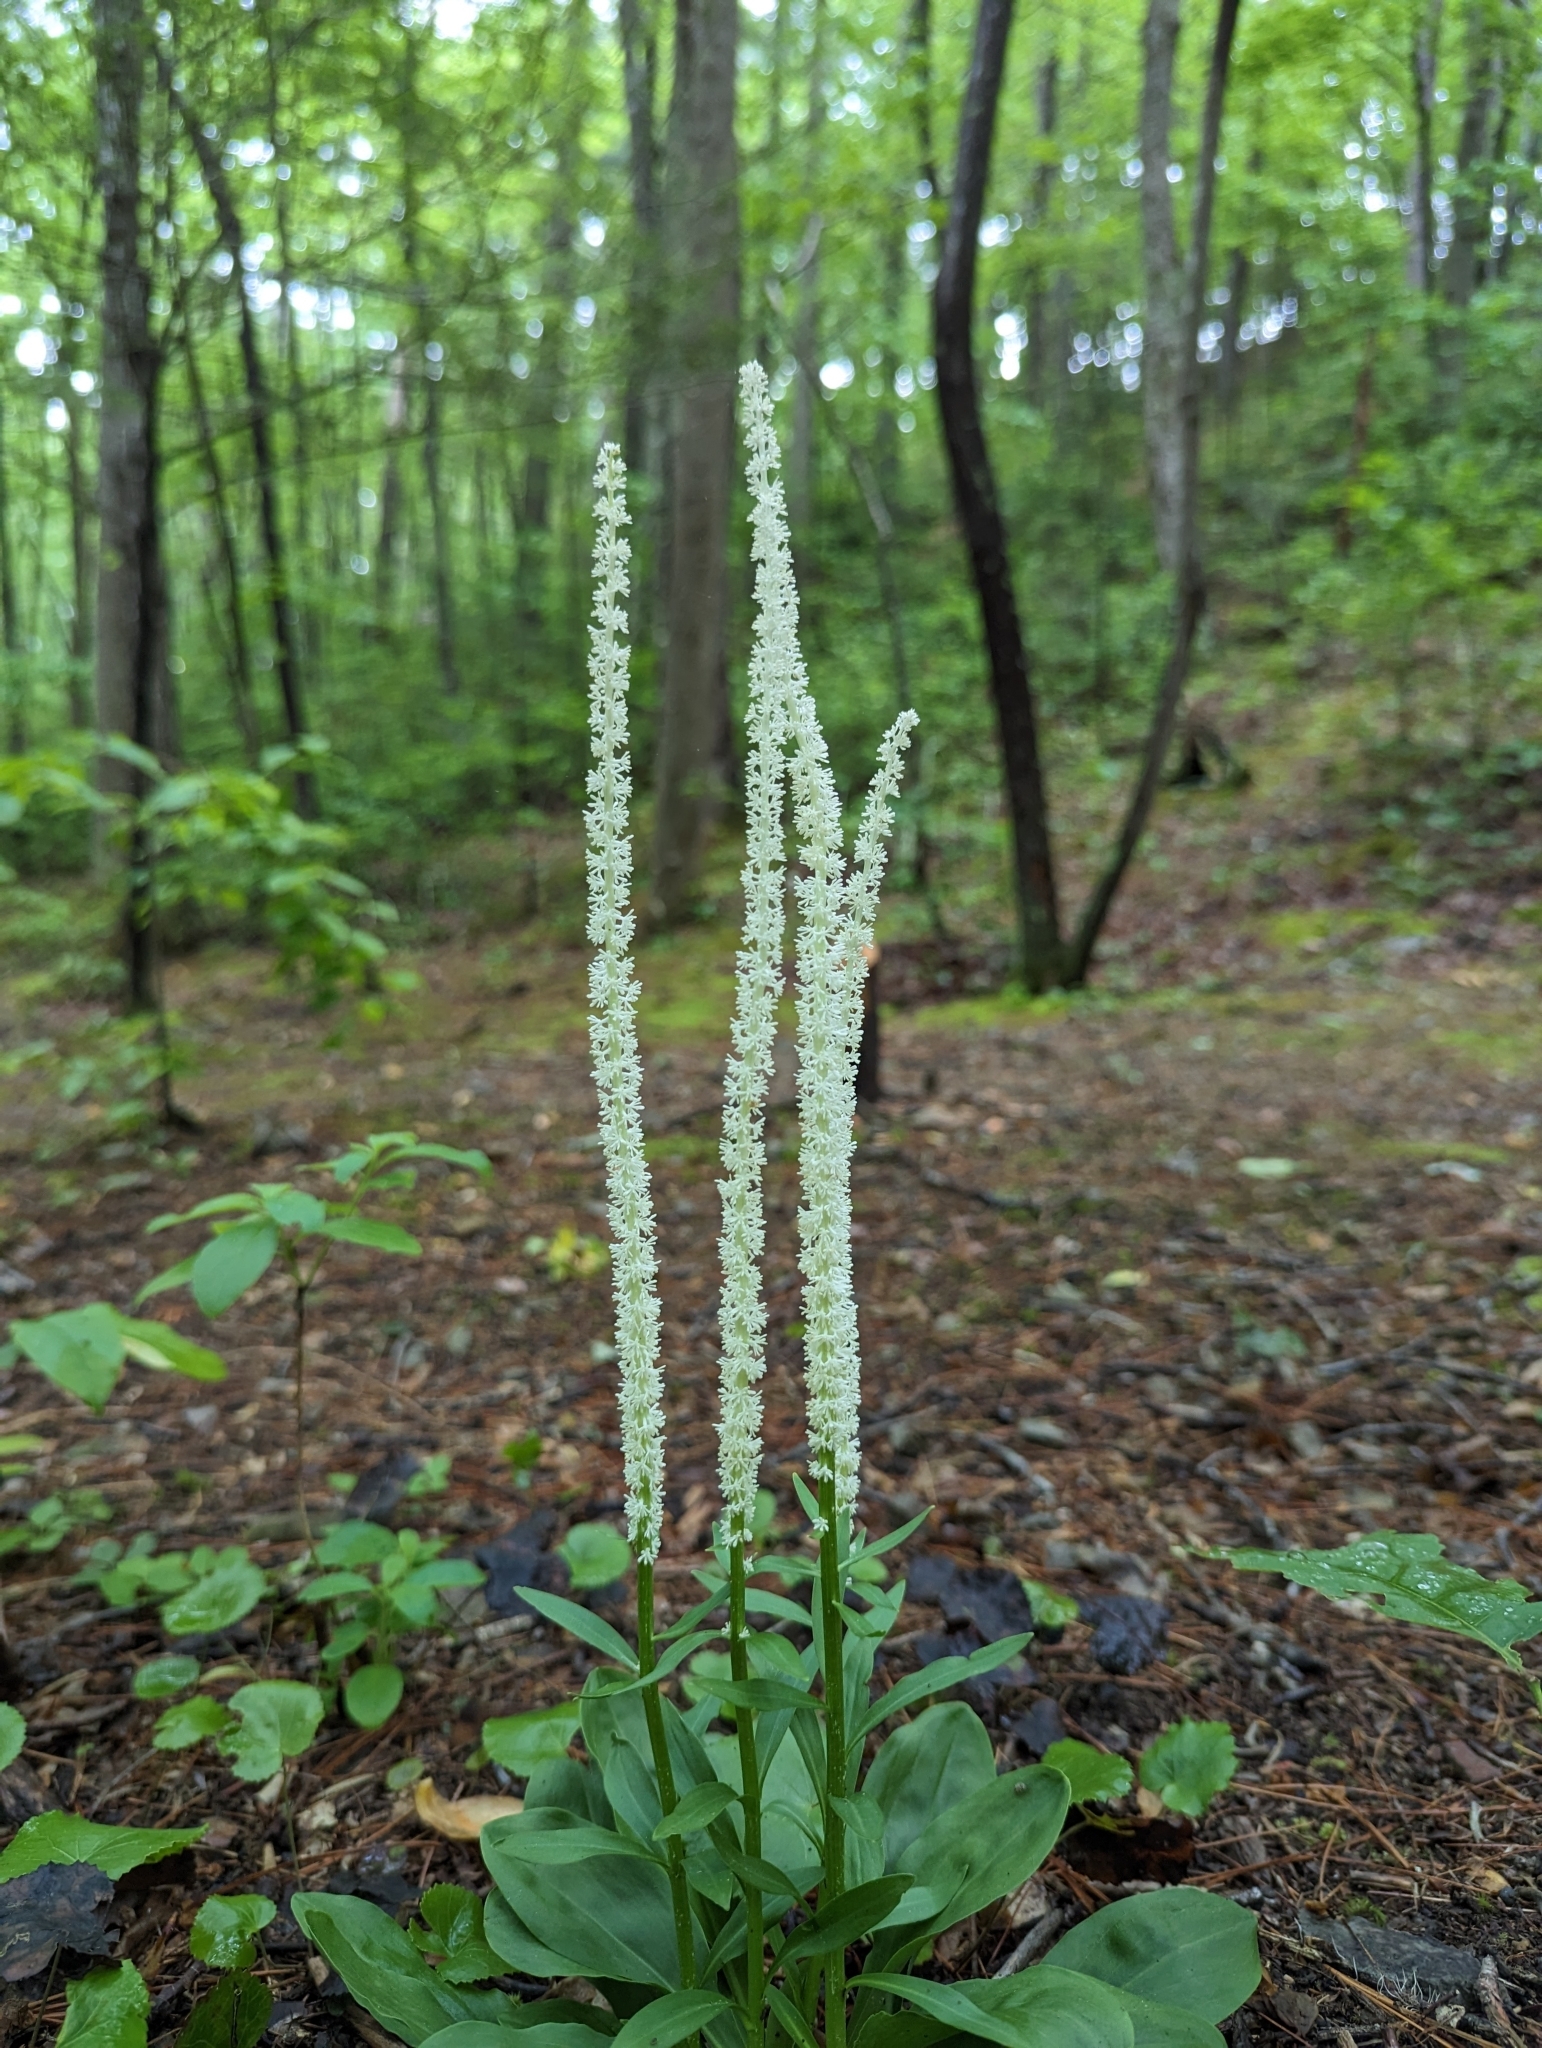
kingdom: Plantae
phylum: Tracheophyta
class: Liliopsida
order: Liliales
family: Melanthiaceae
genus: Chamaelirium
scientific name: Chamaelirium luteum
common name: Fairy-wand
